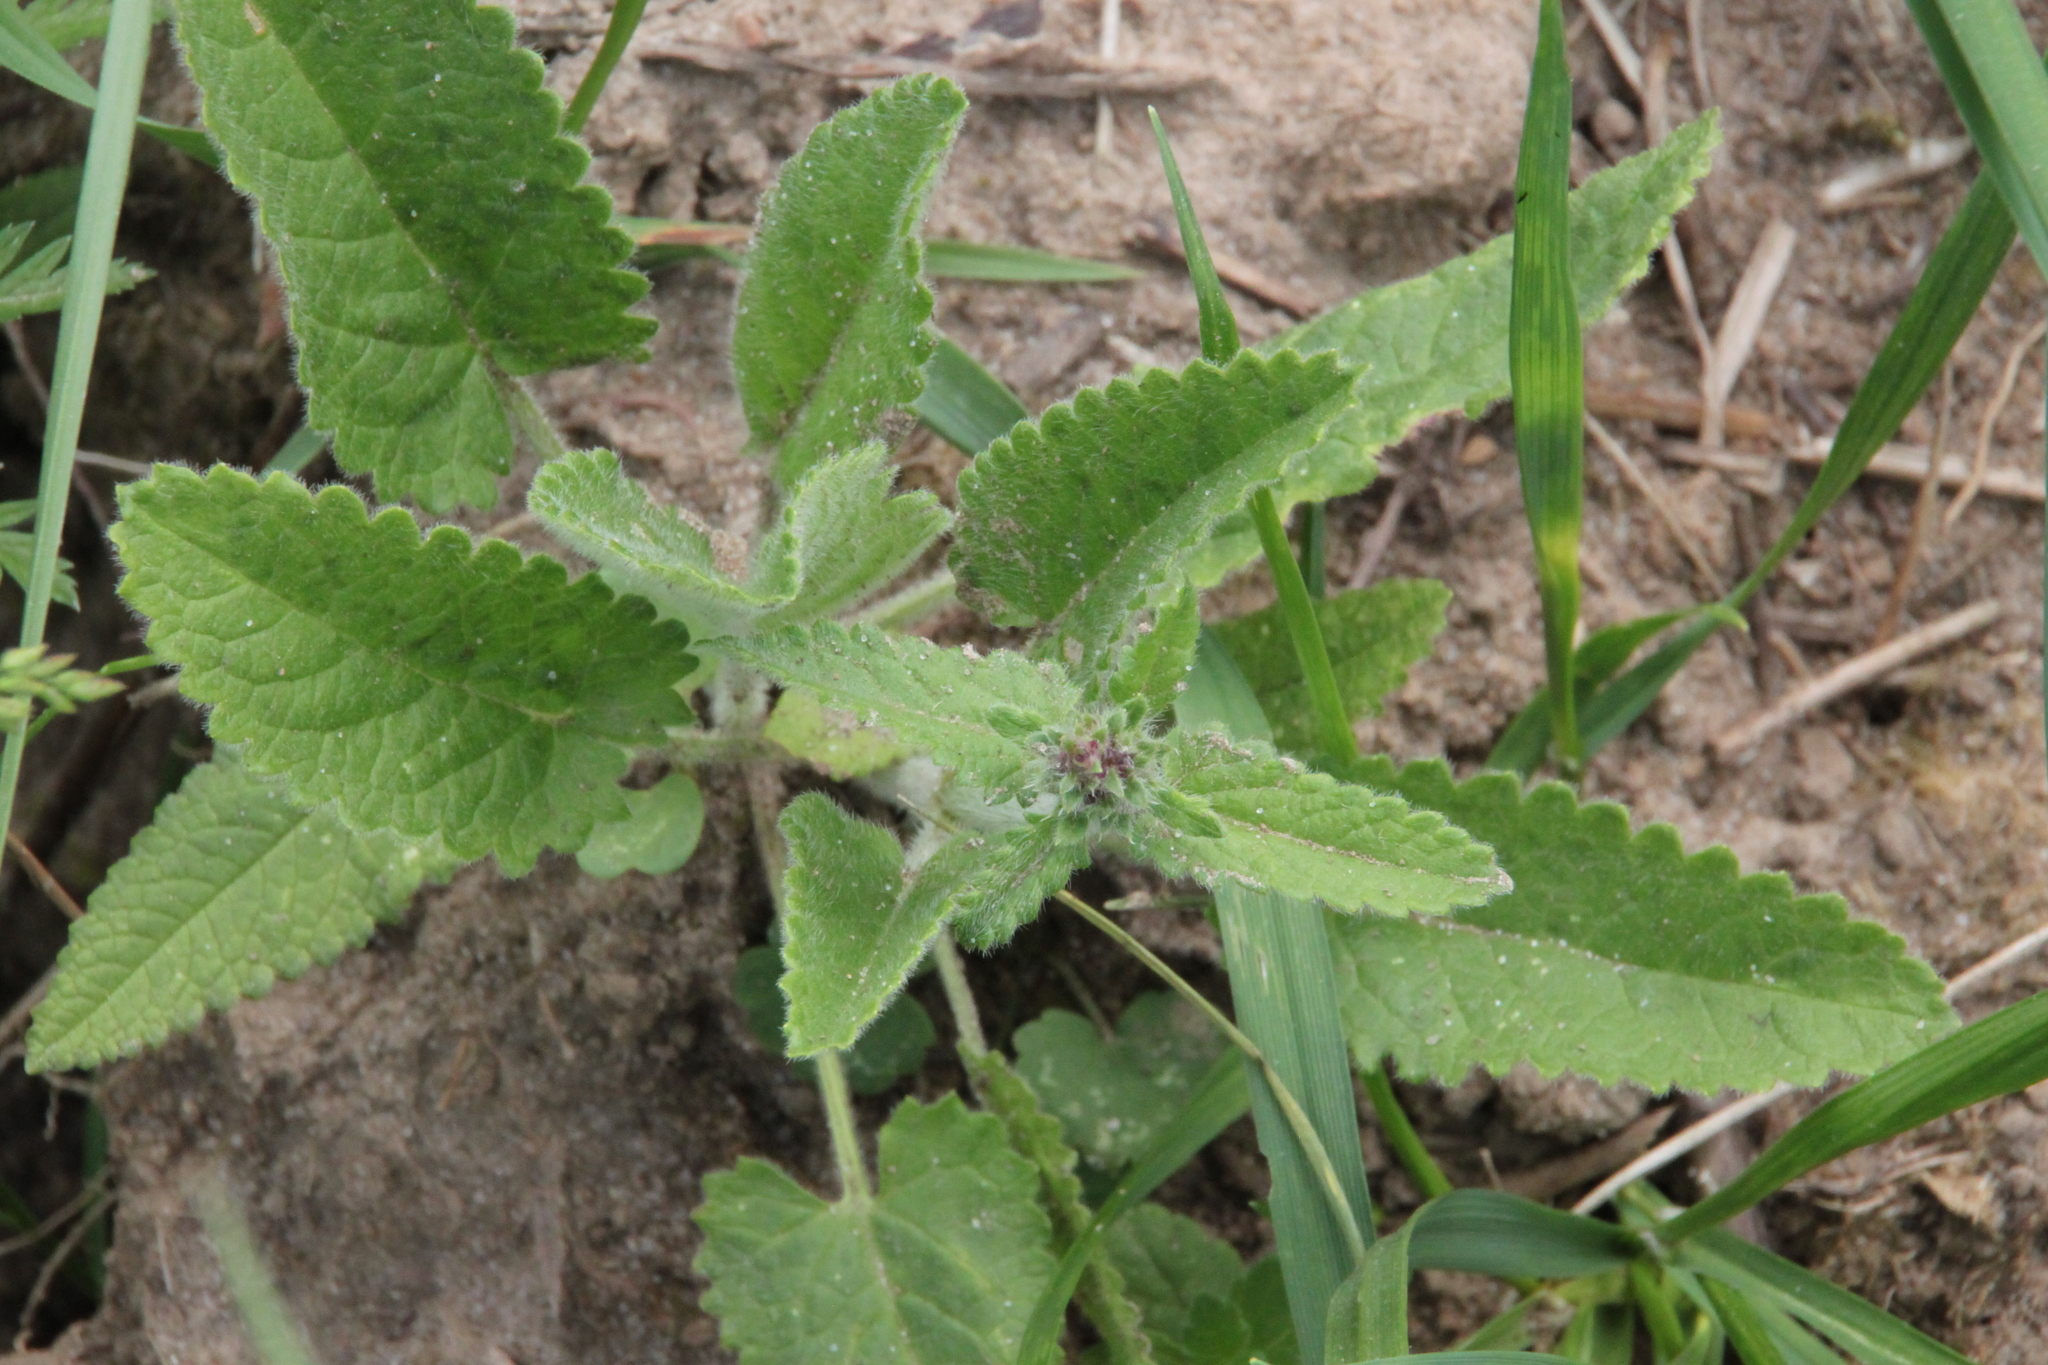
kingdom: Plantae
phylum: Tracheophyta
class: Magnoliopsida
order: Lamiales
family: Lamiaceae
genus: Betonica
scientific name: Betonica officinalis
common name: Bishop's-wort
